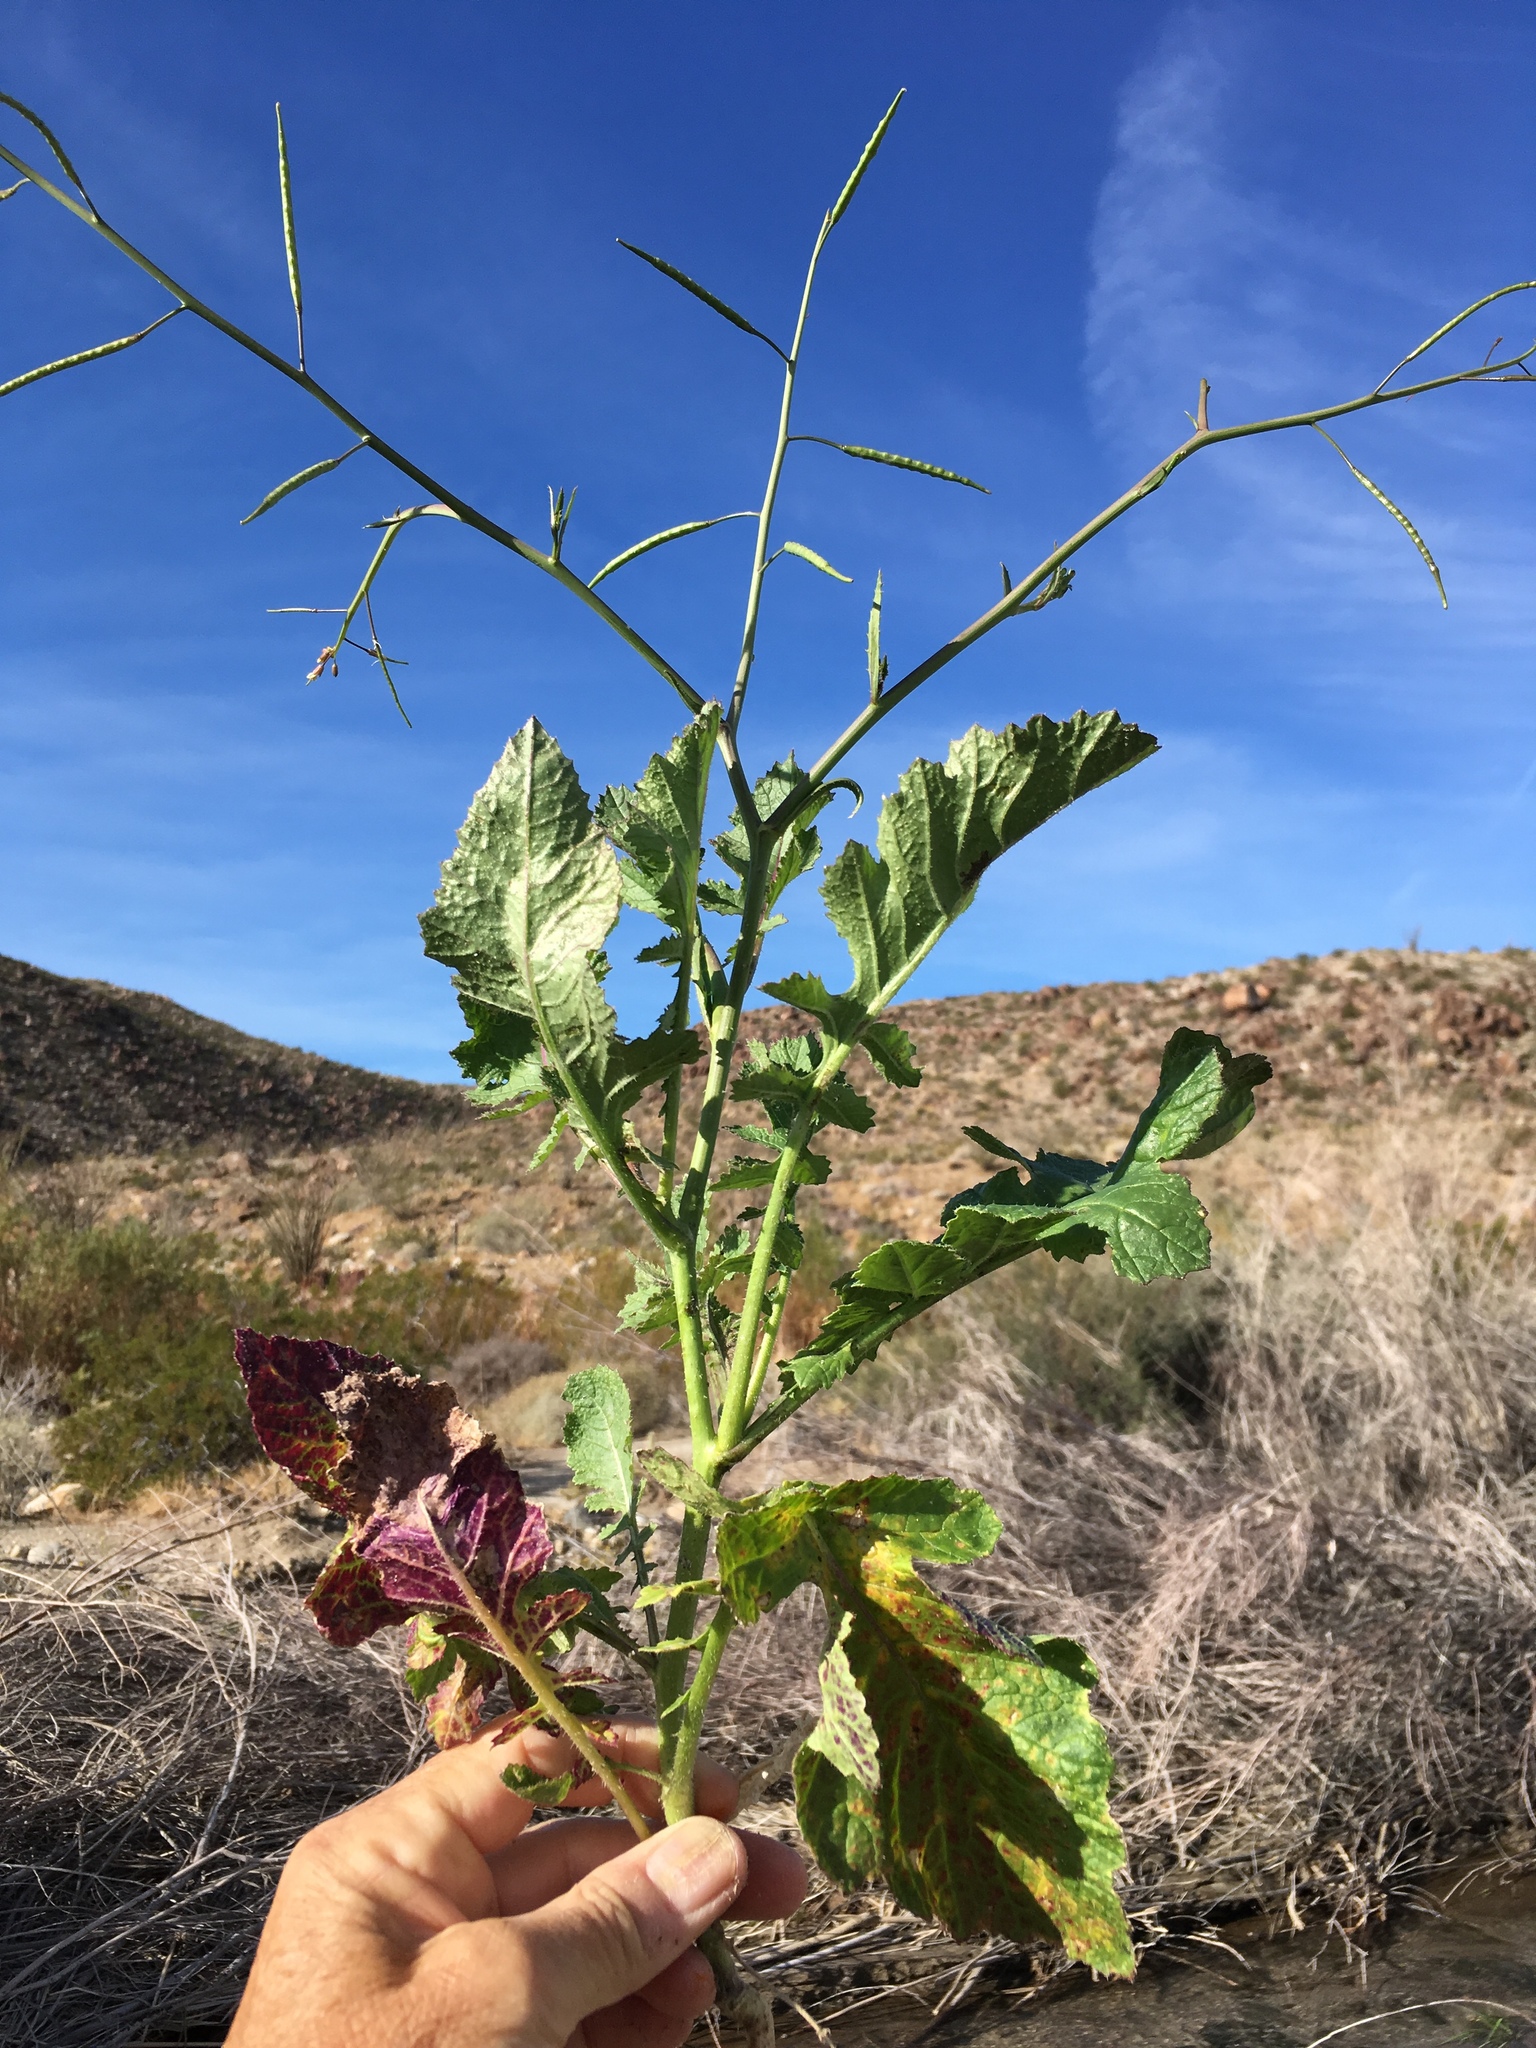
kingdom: Plantae
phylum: Tracheophyta
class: Magnoliopsida
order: Brassicales
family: Brassicaceae
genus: Brassica
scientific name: Brassica tournefortii
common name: Pale cabbage
